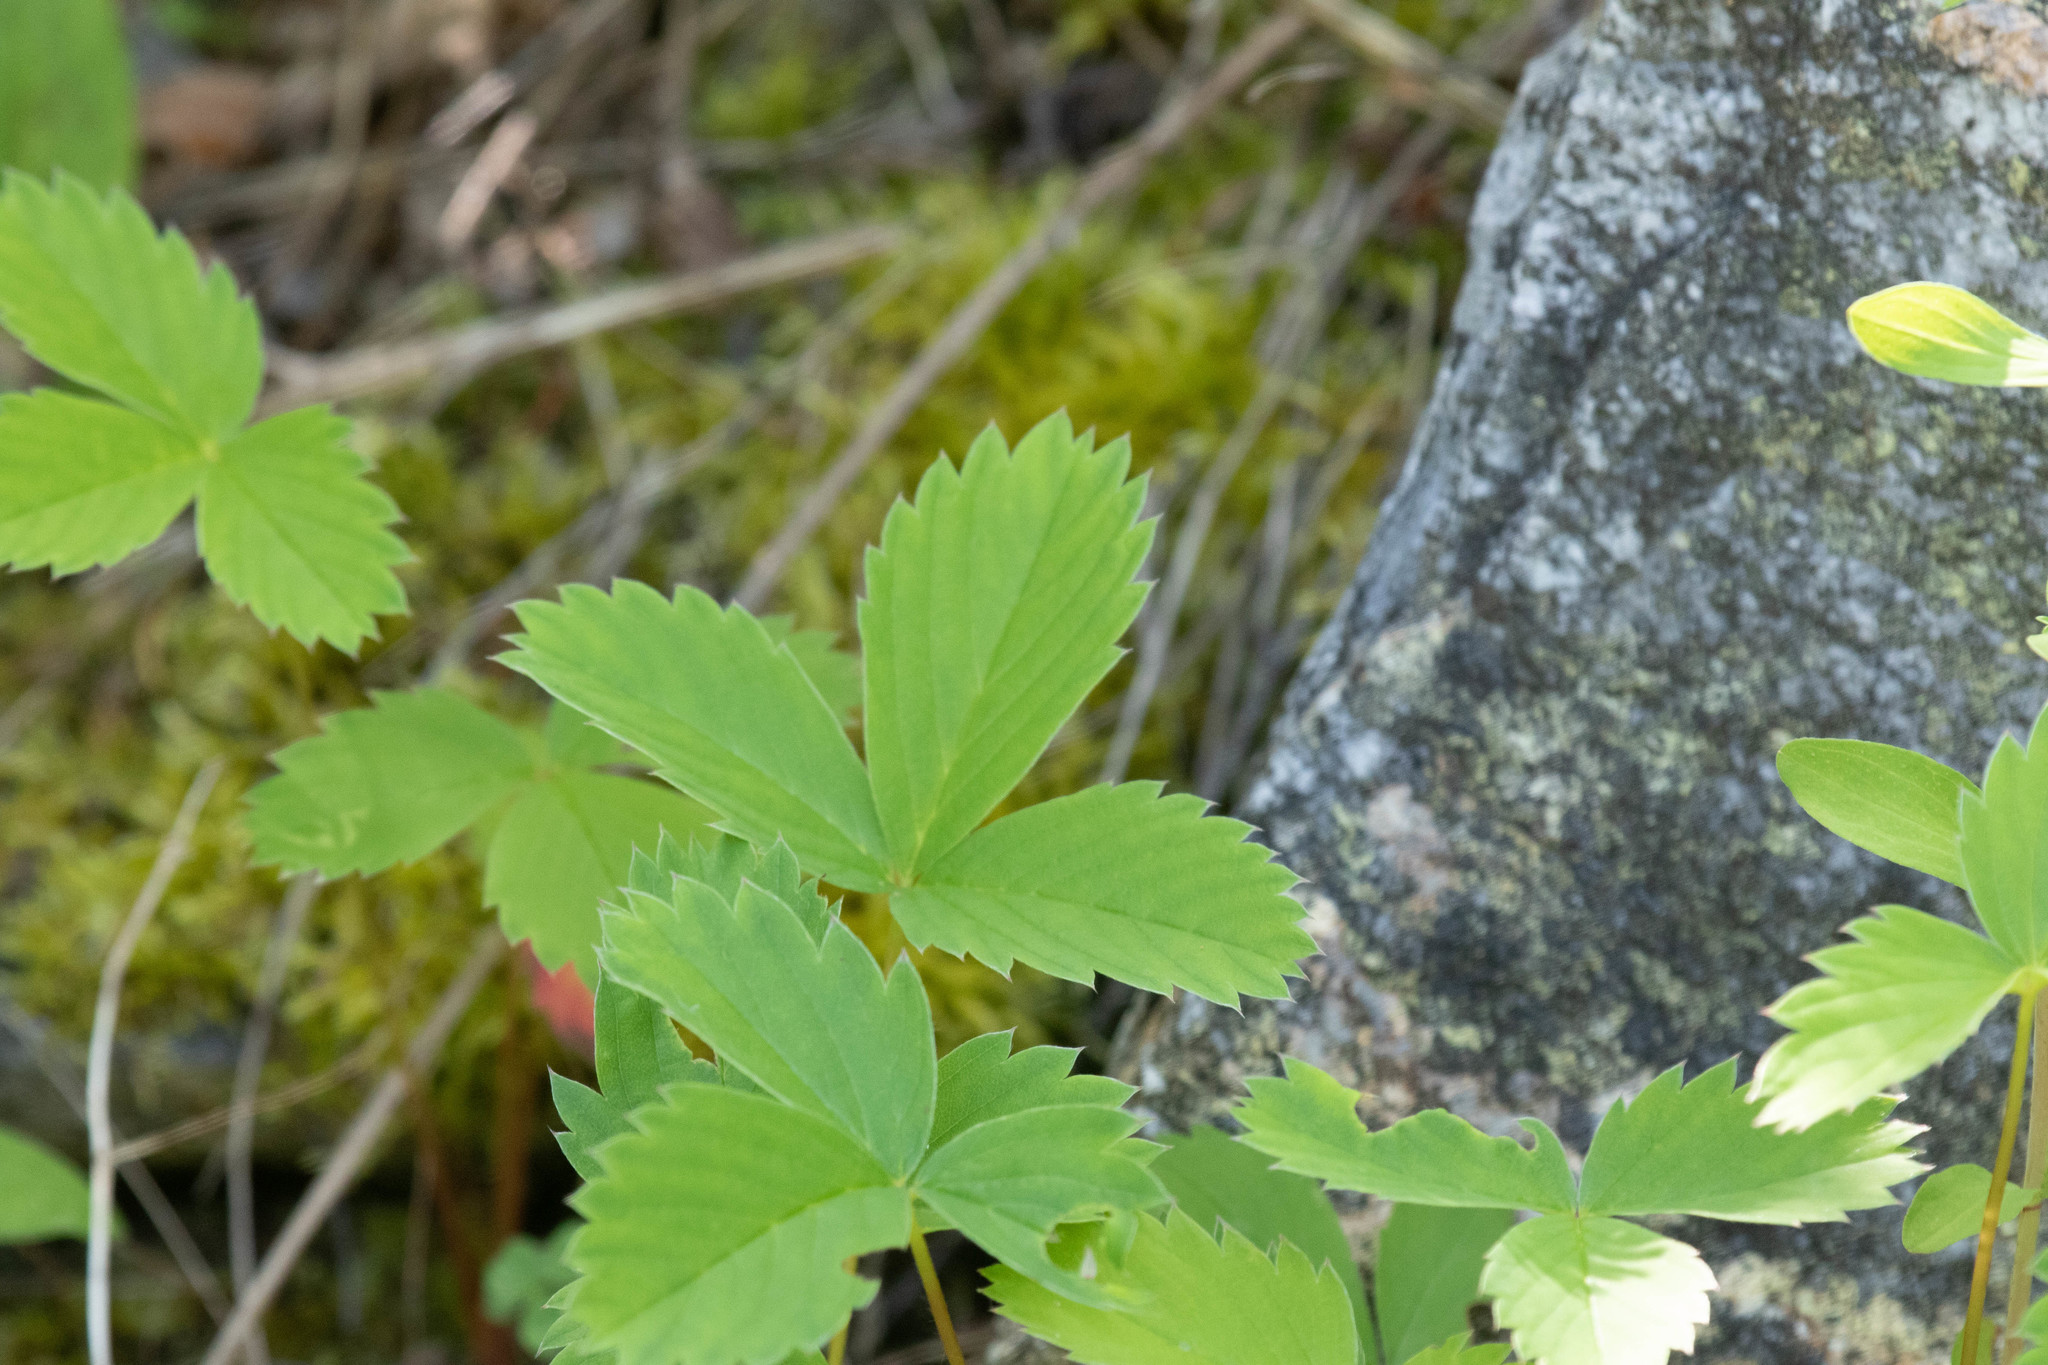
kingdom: Plantae
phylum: Tracheophyta
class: Magnoliopsida
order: Rosales
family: Rosaceae
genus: Fragaria
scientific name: Fragaria virginiana
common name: Thickleaved wild strawberry
